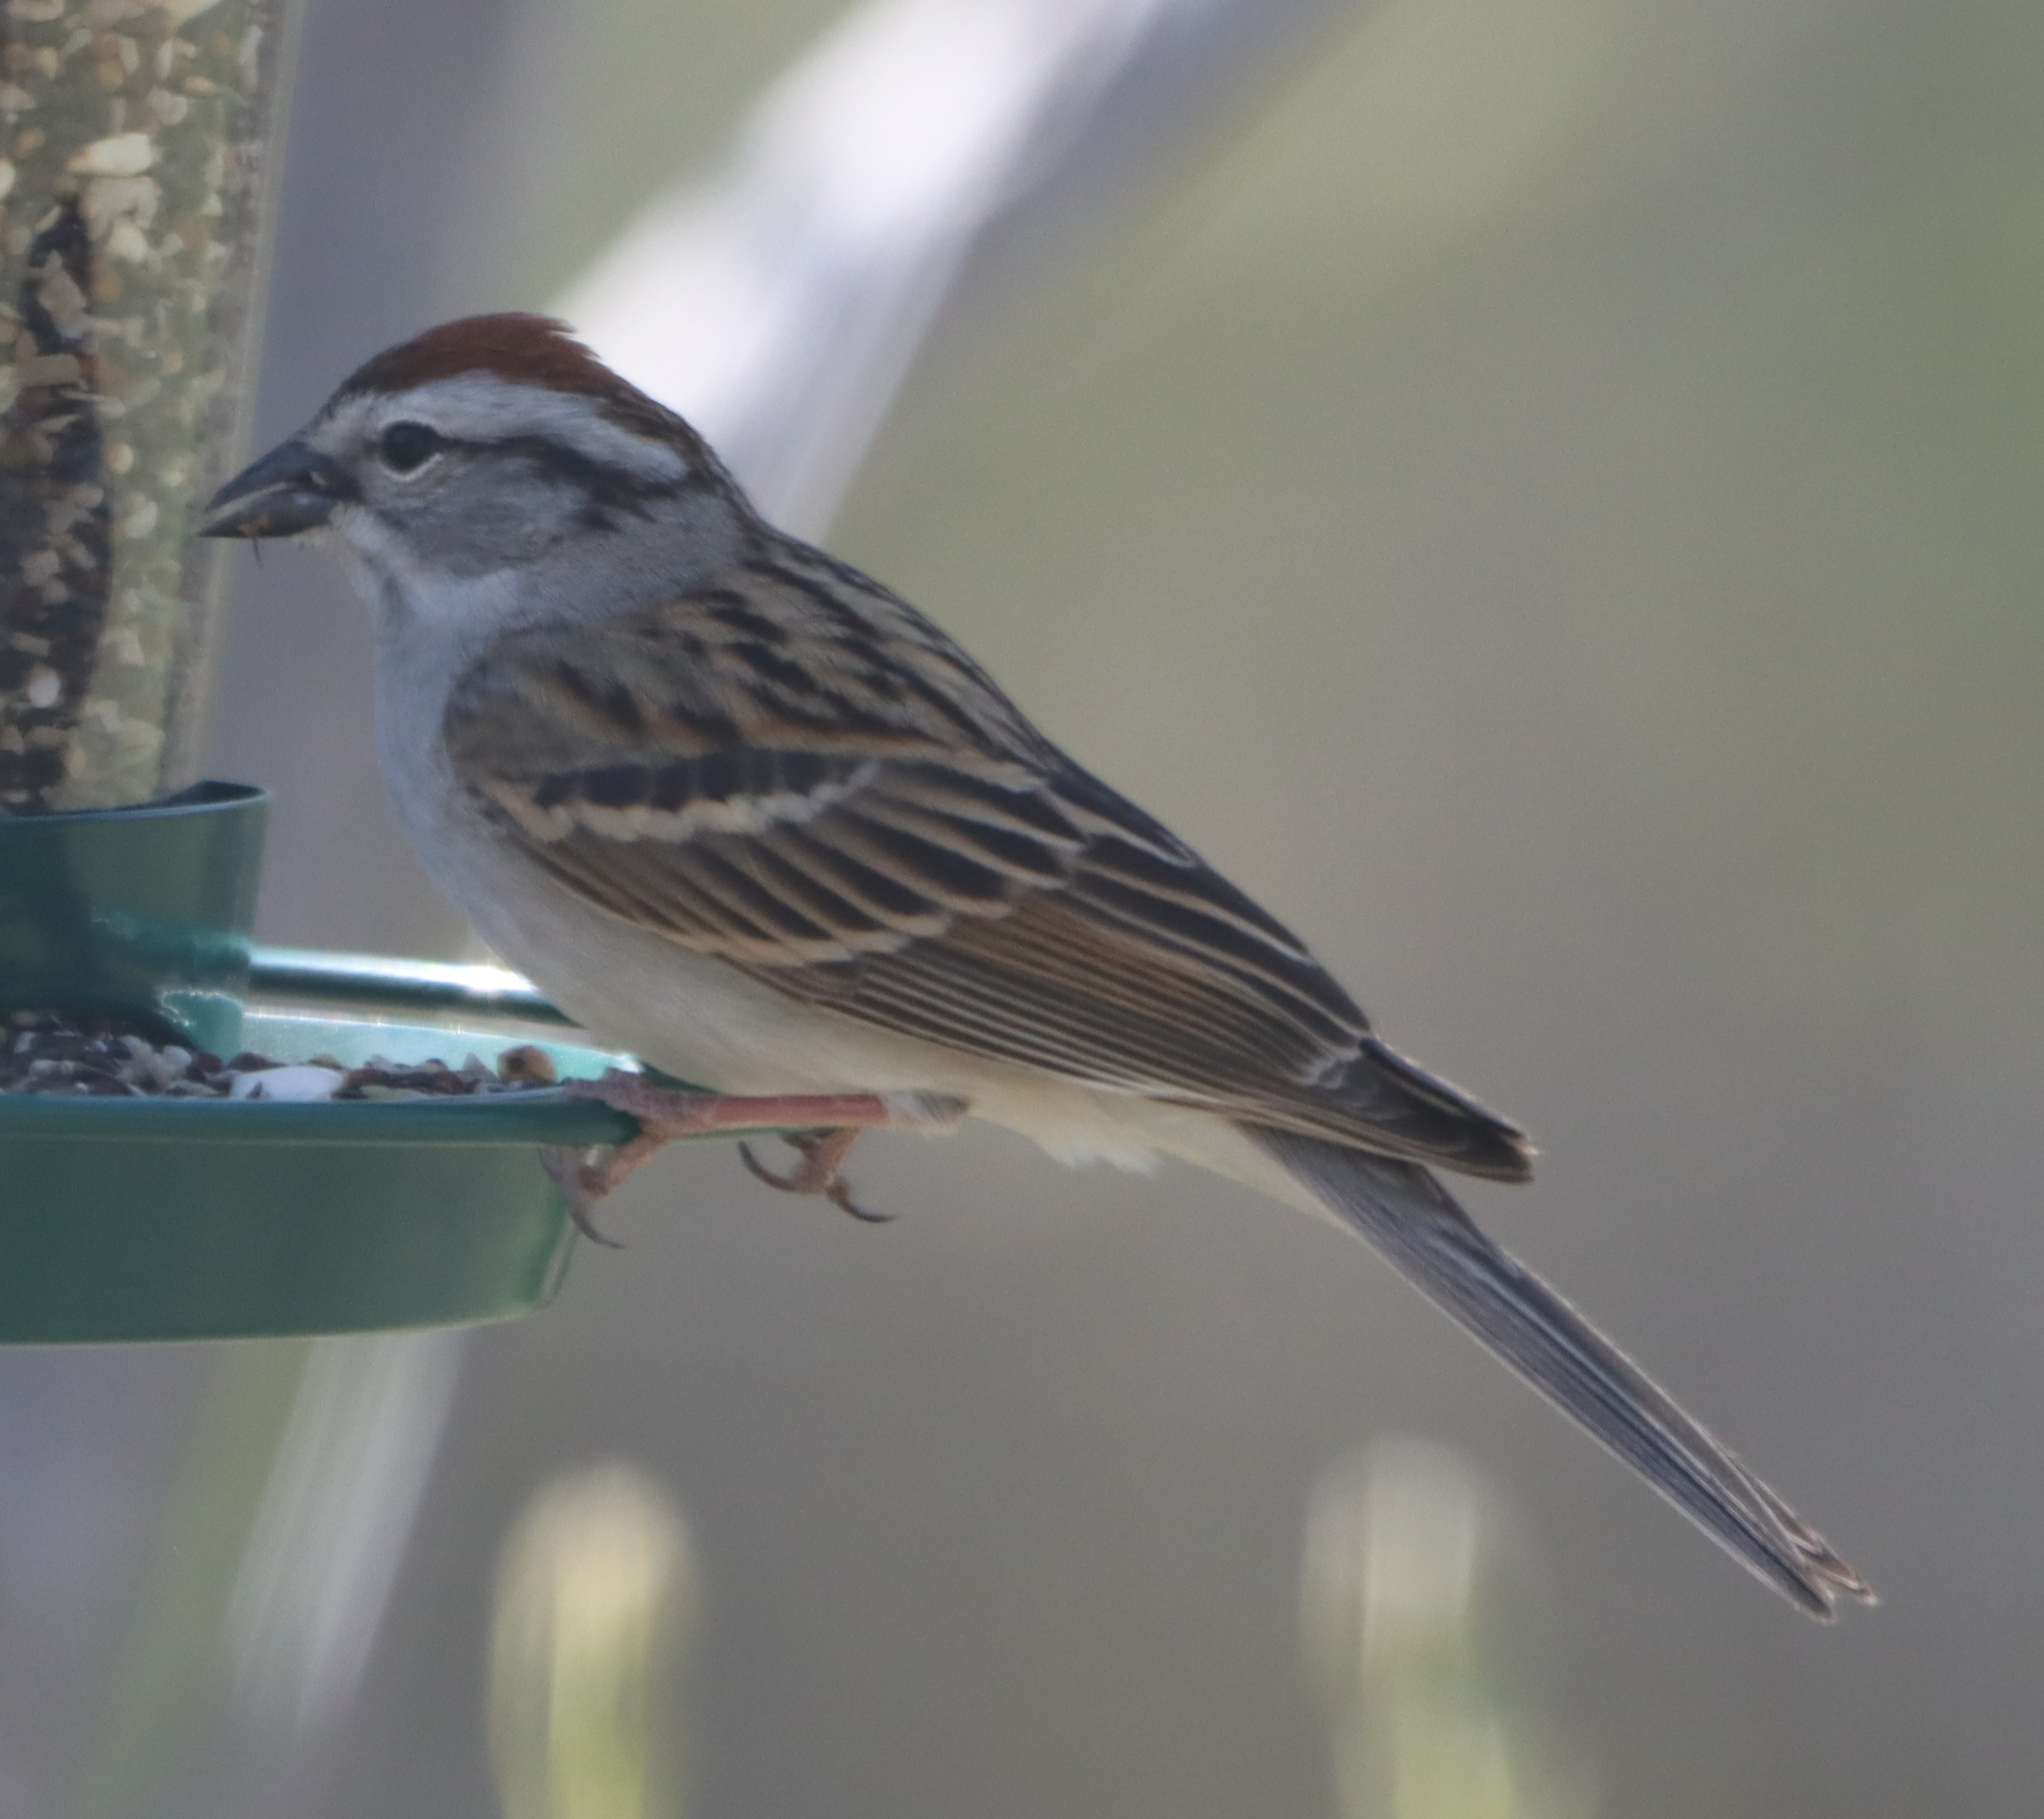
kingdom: Animalia
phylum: Chordata
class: Aves
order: Passeriformes
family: Passerellidae
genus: Spizella
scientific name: Spizella passerina
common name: Chipping sparrow
